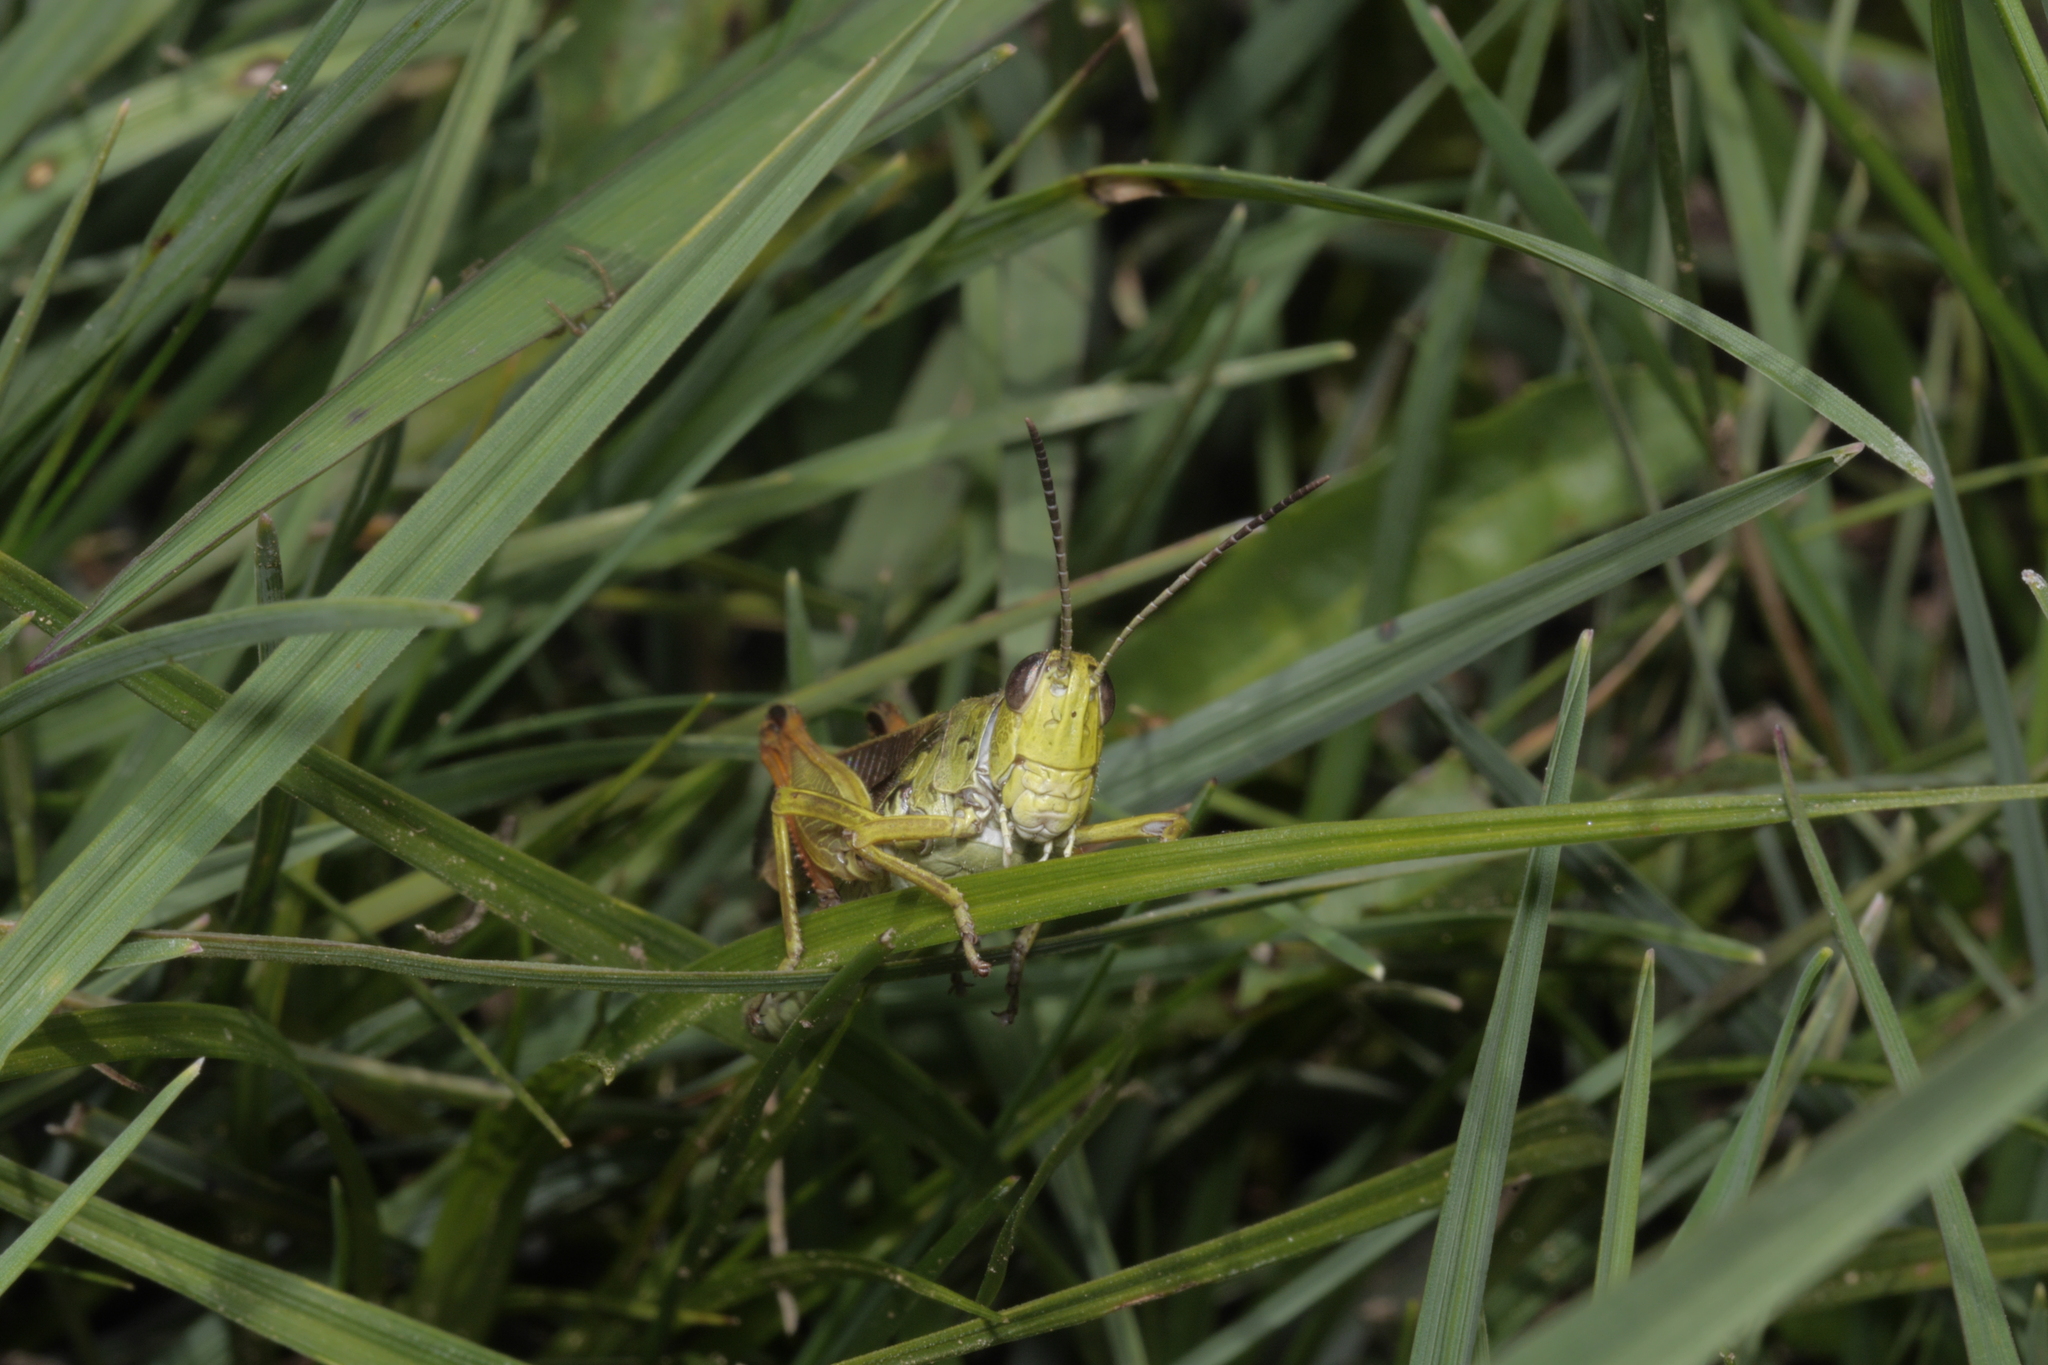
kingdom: Animalia
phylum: Arthropoda
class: Insecta
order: Orthoptera
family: Acrididae
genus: Stauroderus
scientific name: Stauroderus scalaris
